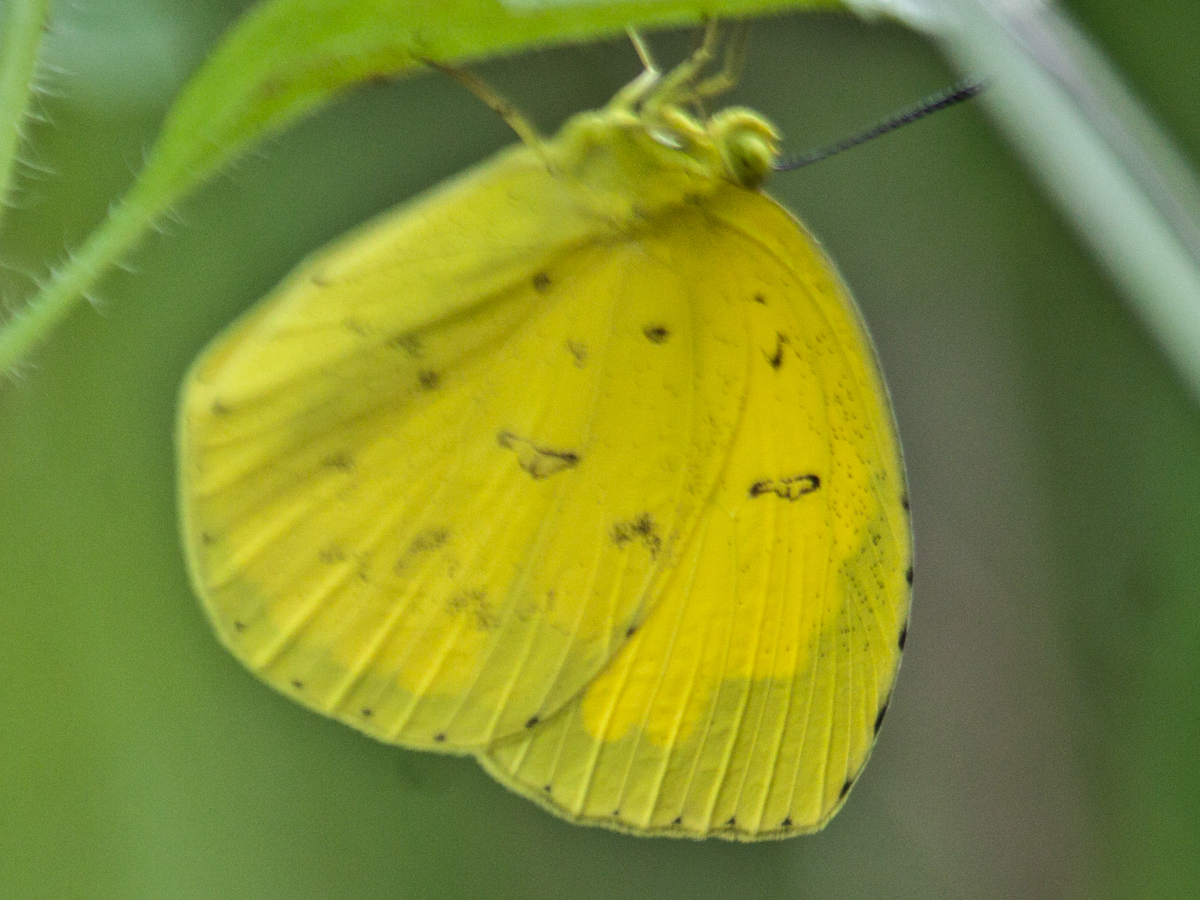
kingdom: Animalia
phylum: Arthropoda
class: Insecta
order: Lepidoptera
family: Pieridae
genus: Eurema
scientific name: Eurema simulatrix
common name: Hill grass yellow
